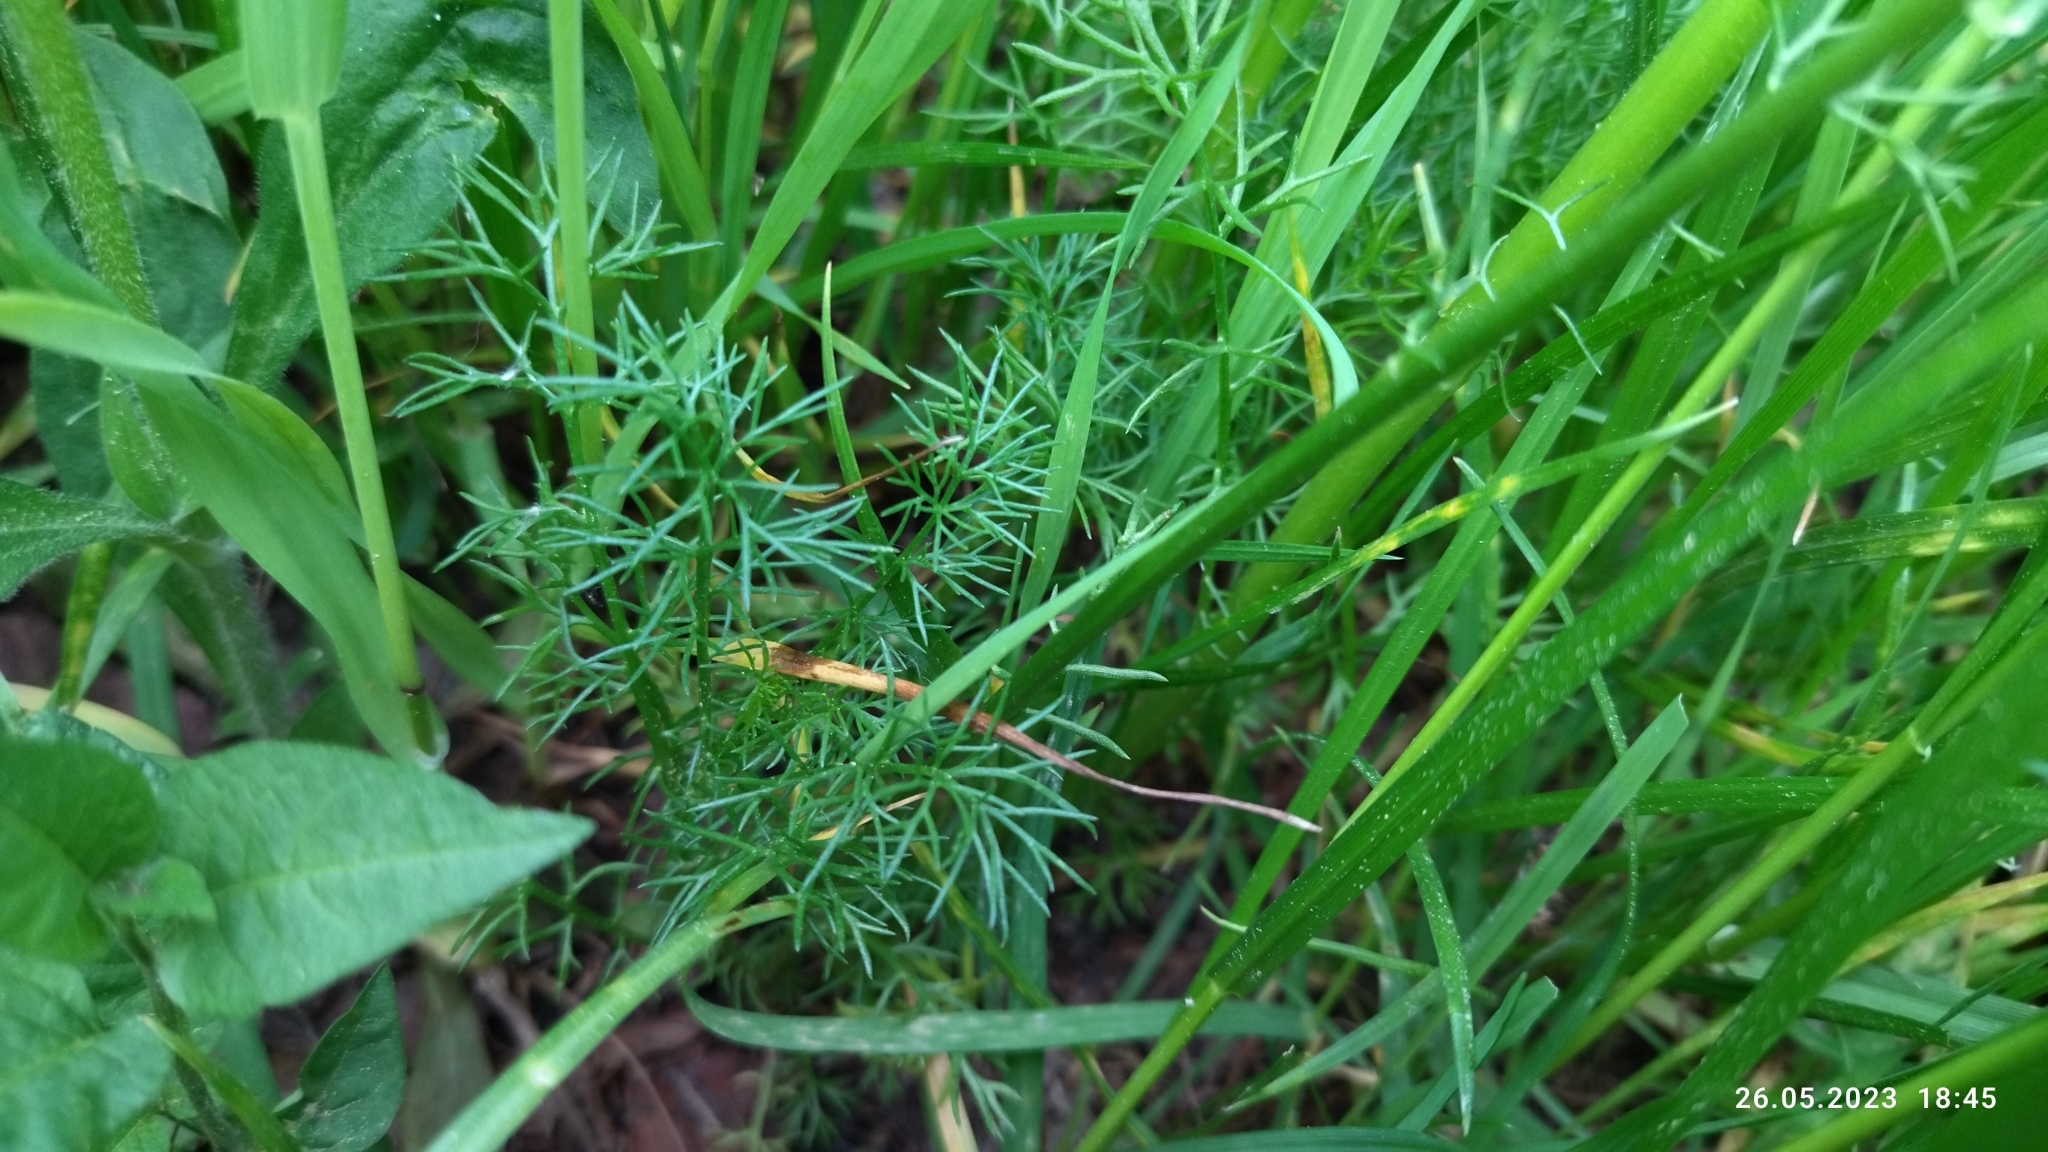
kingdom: Plantae
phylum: Tracheophyta
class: Magnoliopsida
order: Asterales
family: Asteraceae
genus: Tripleurospermum
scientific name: Tripleurospermum inodorum
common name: Scentless mayweed
